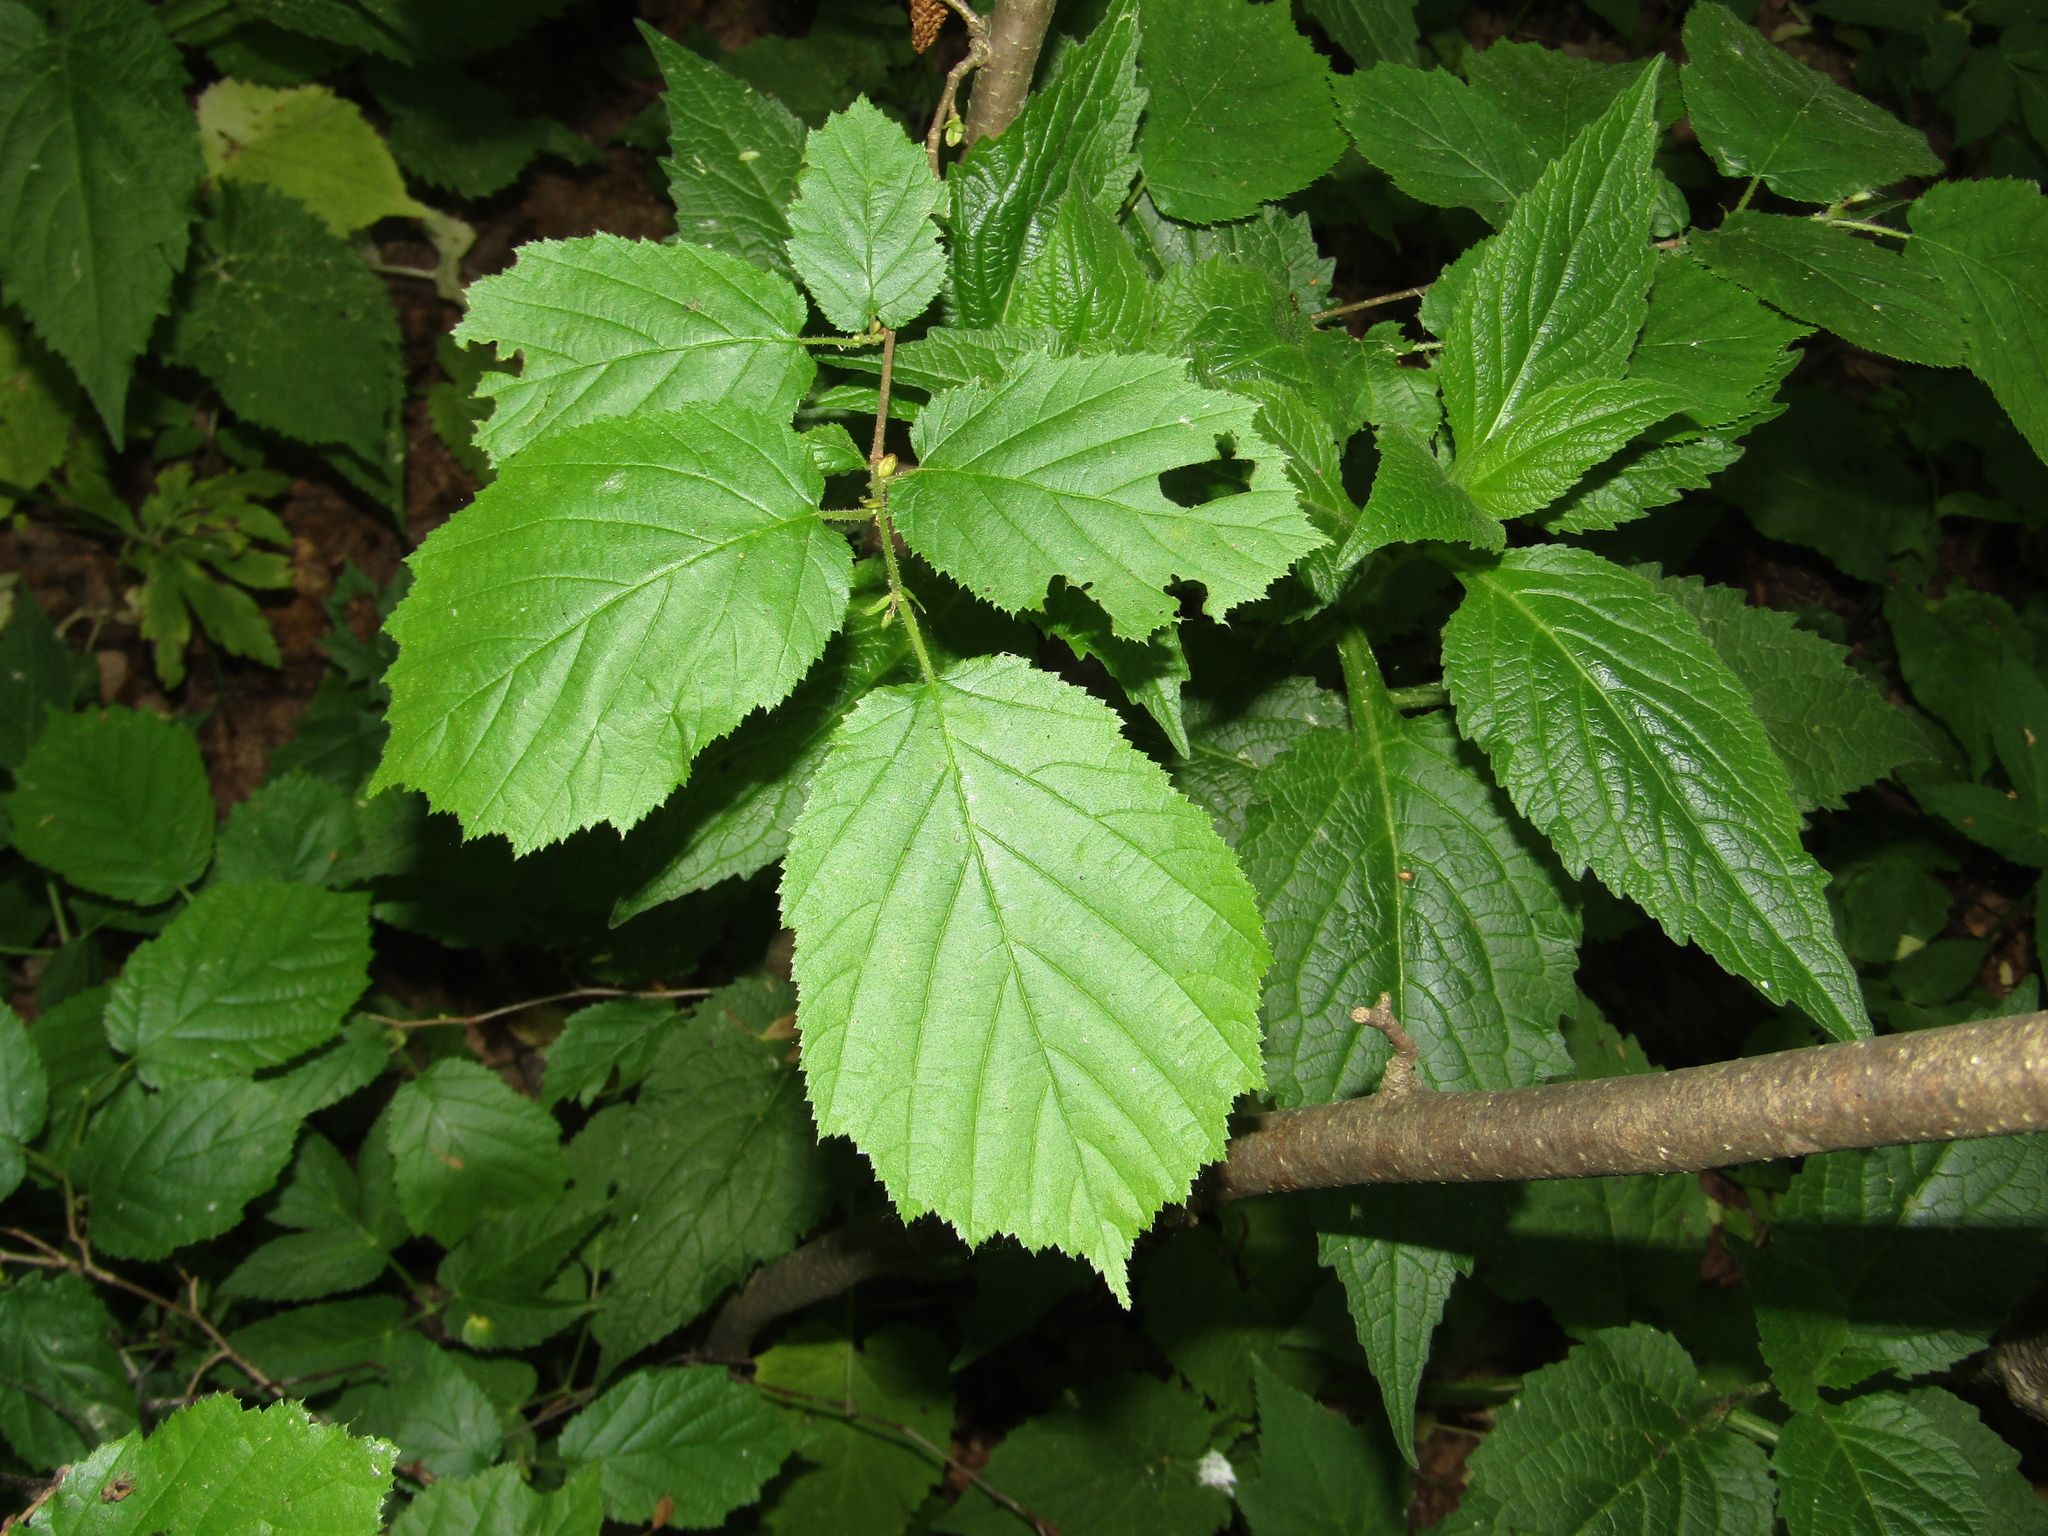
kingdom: Plantae
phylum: Tracheophyta
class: Magnoliopsida
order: Fagales
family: Betulaceae
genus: Corylus
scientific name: Corylus avellana
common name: European hazel
